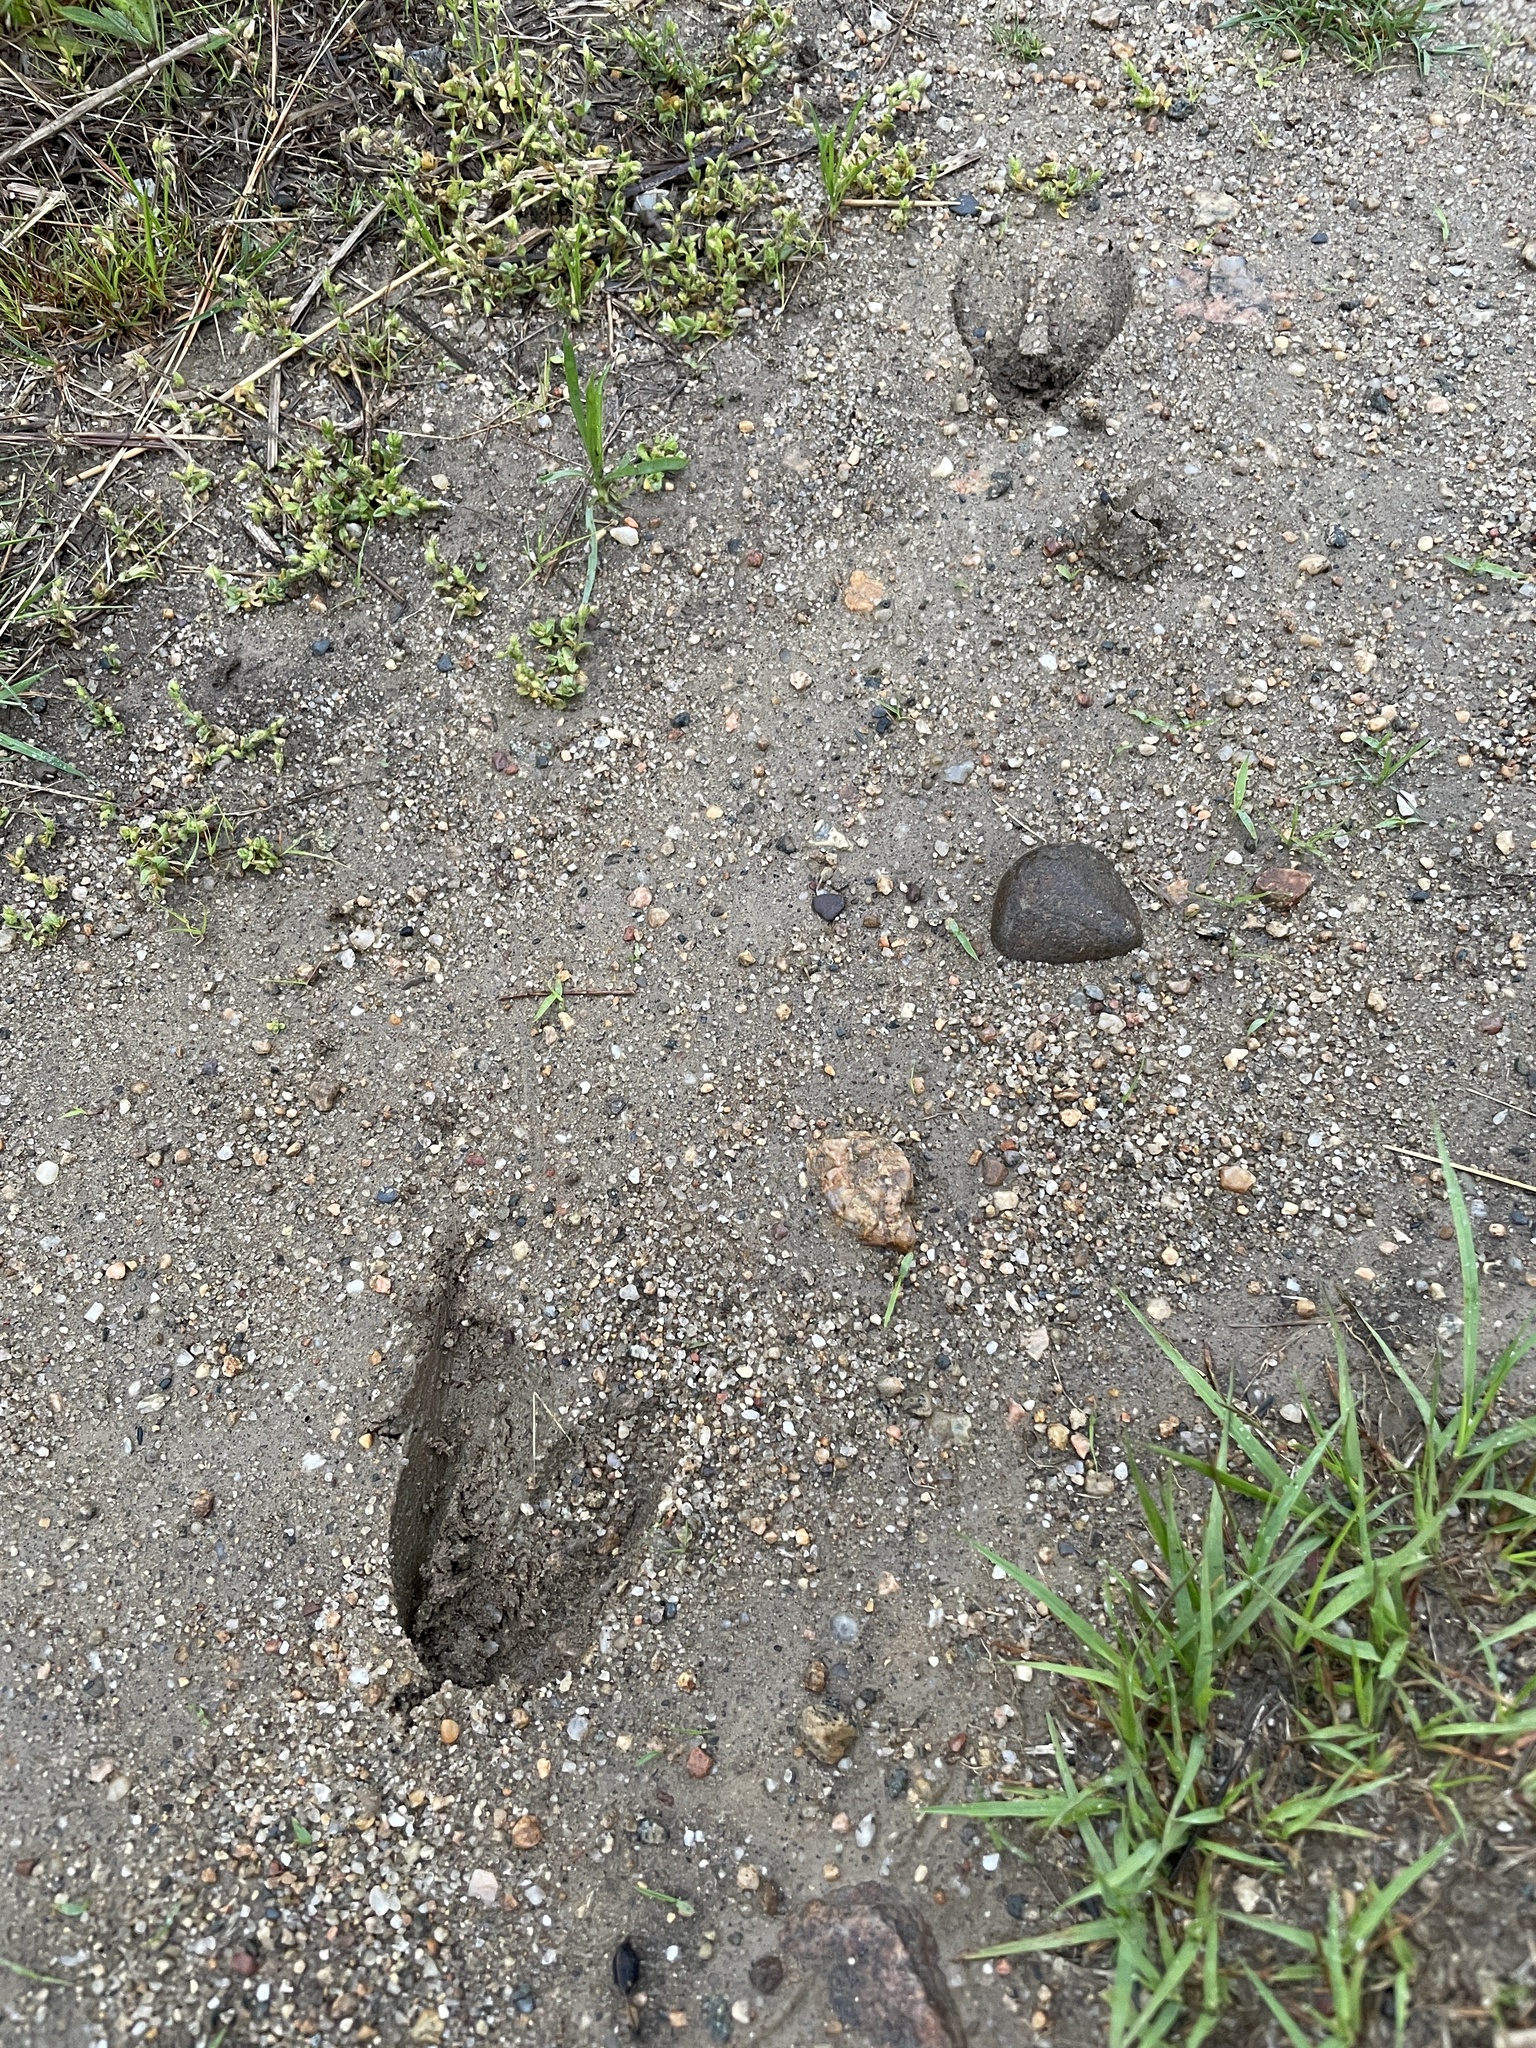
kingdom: Animalia
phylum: Chordata
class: Mammalia
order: Artiodactyla
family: Cervidae
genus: Odocoileus
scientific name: Odocoileus virginianus
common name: White-tailed deer
